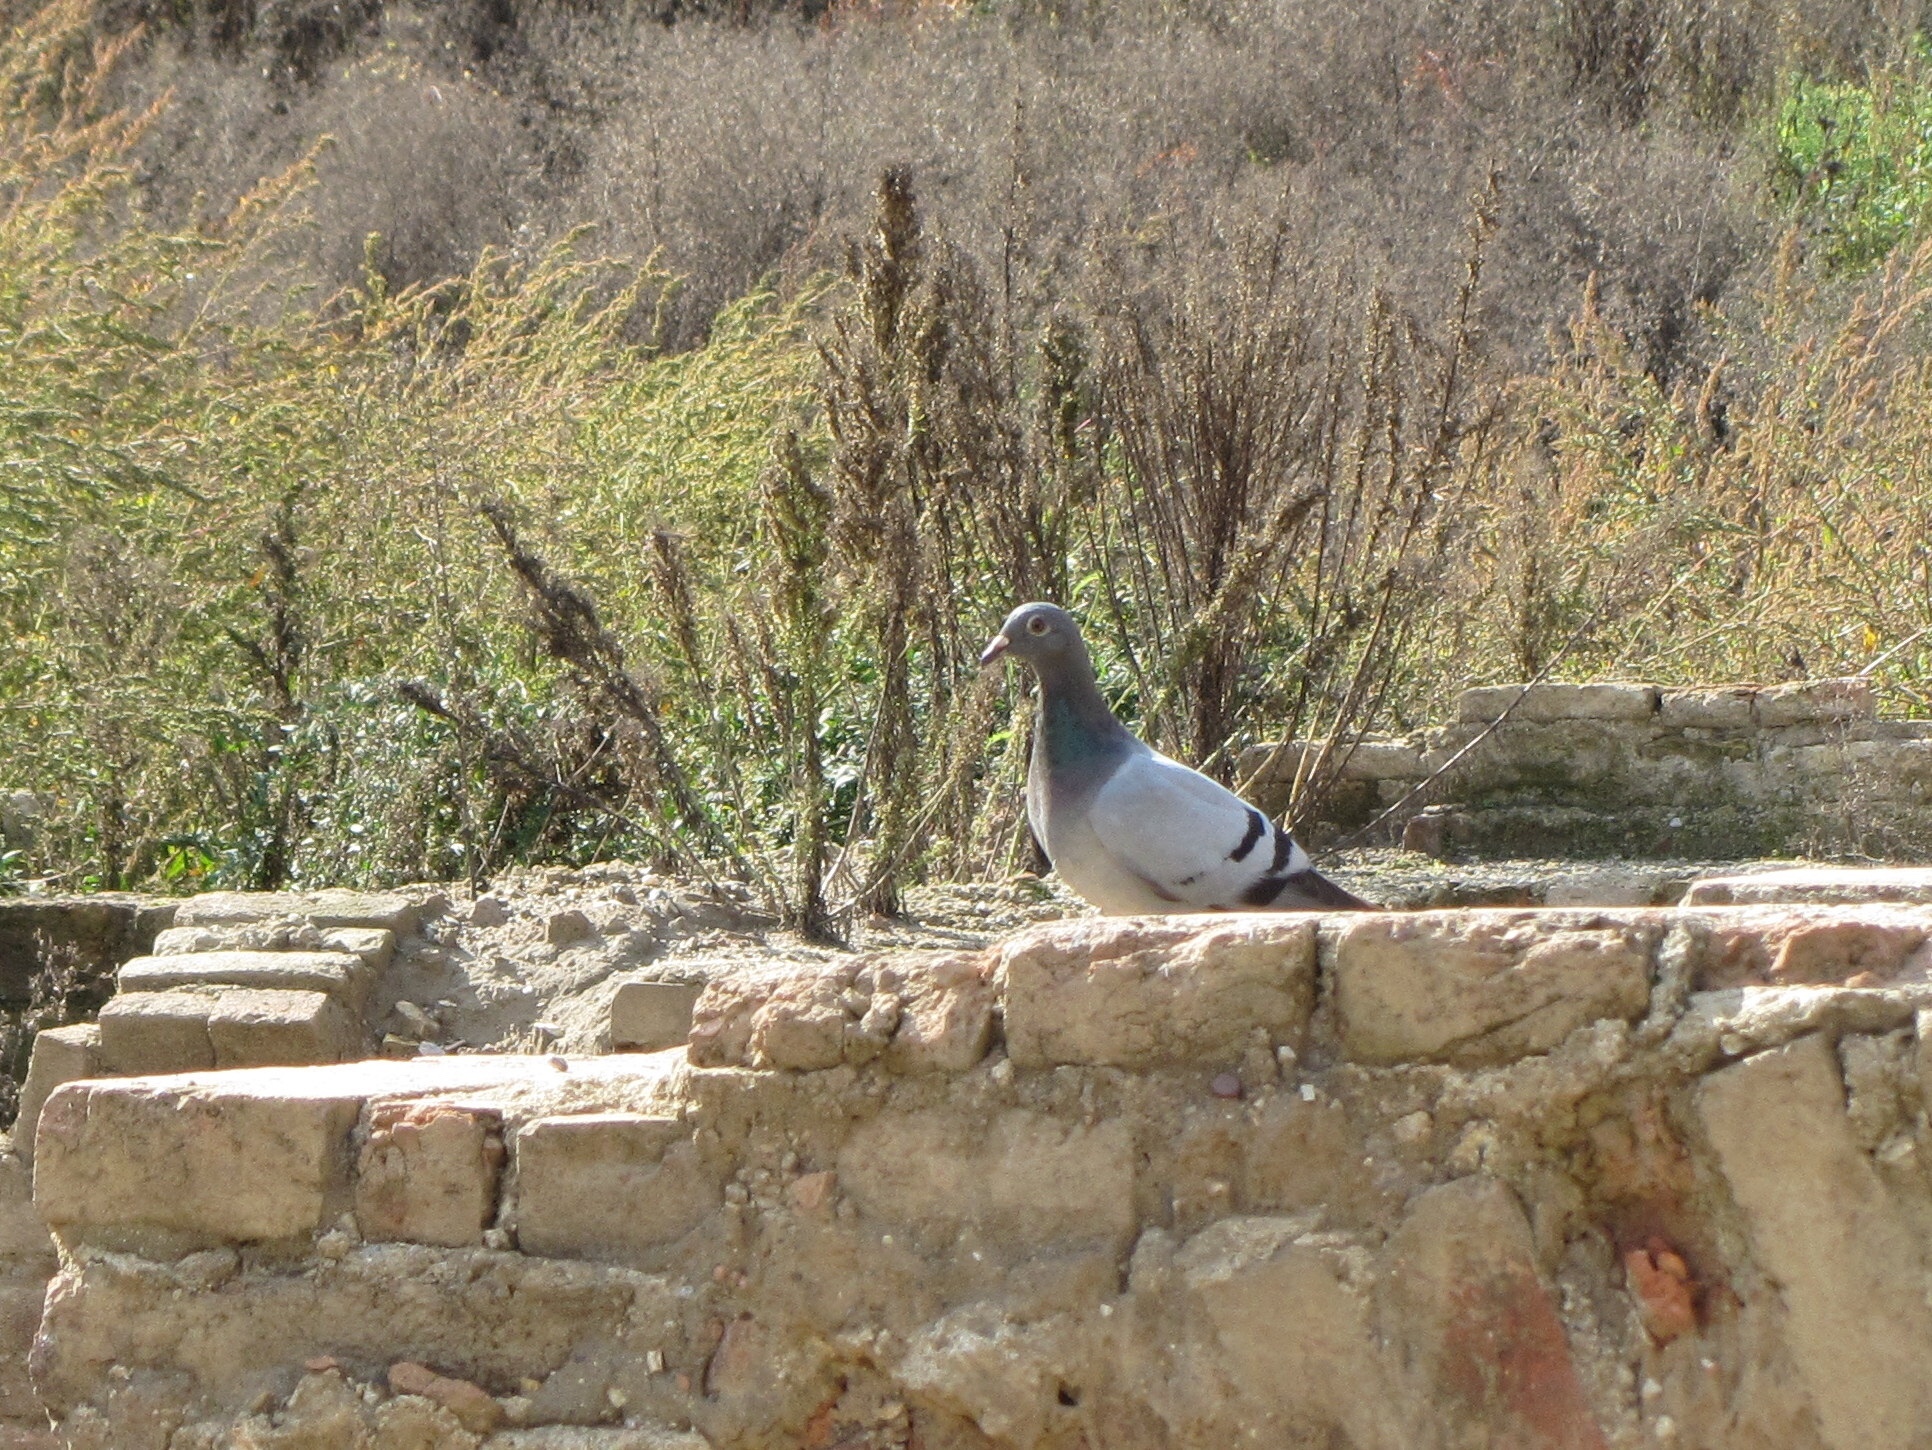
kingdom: Animalia
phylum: Chordata
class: Aves
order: Columbiformes
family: Columbidae
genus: Columba
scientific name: Columba livia
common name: Rock pigeon
